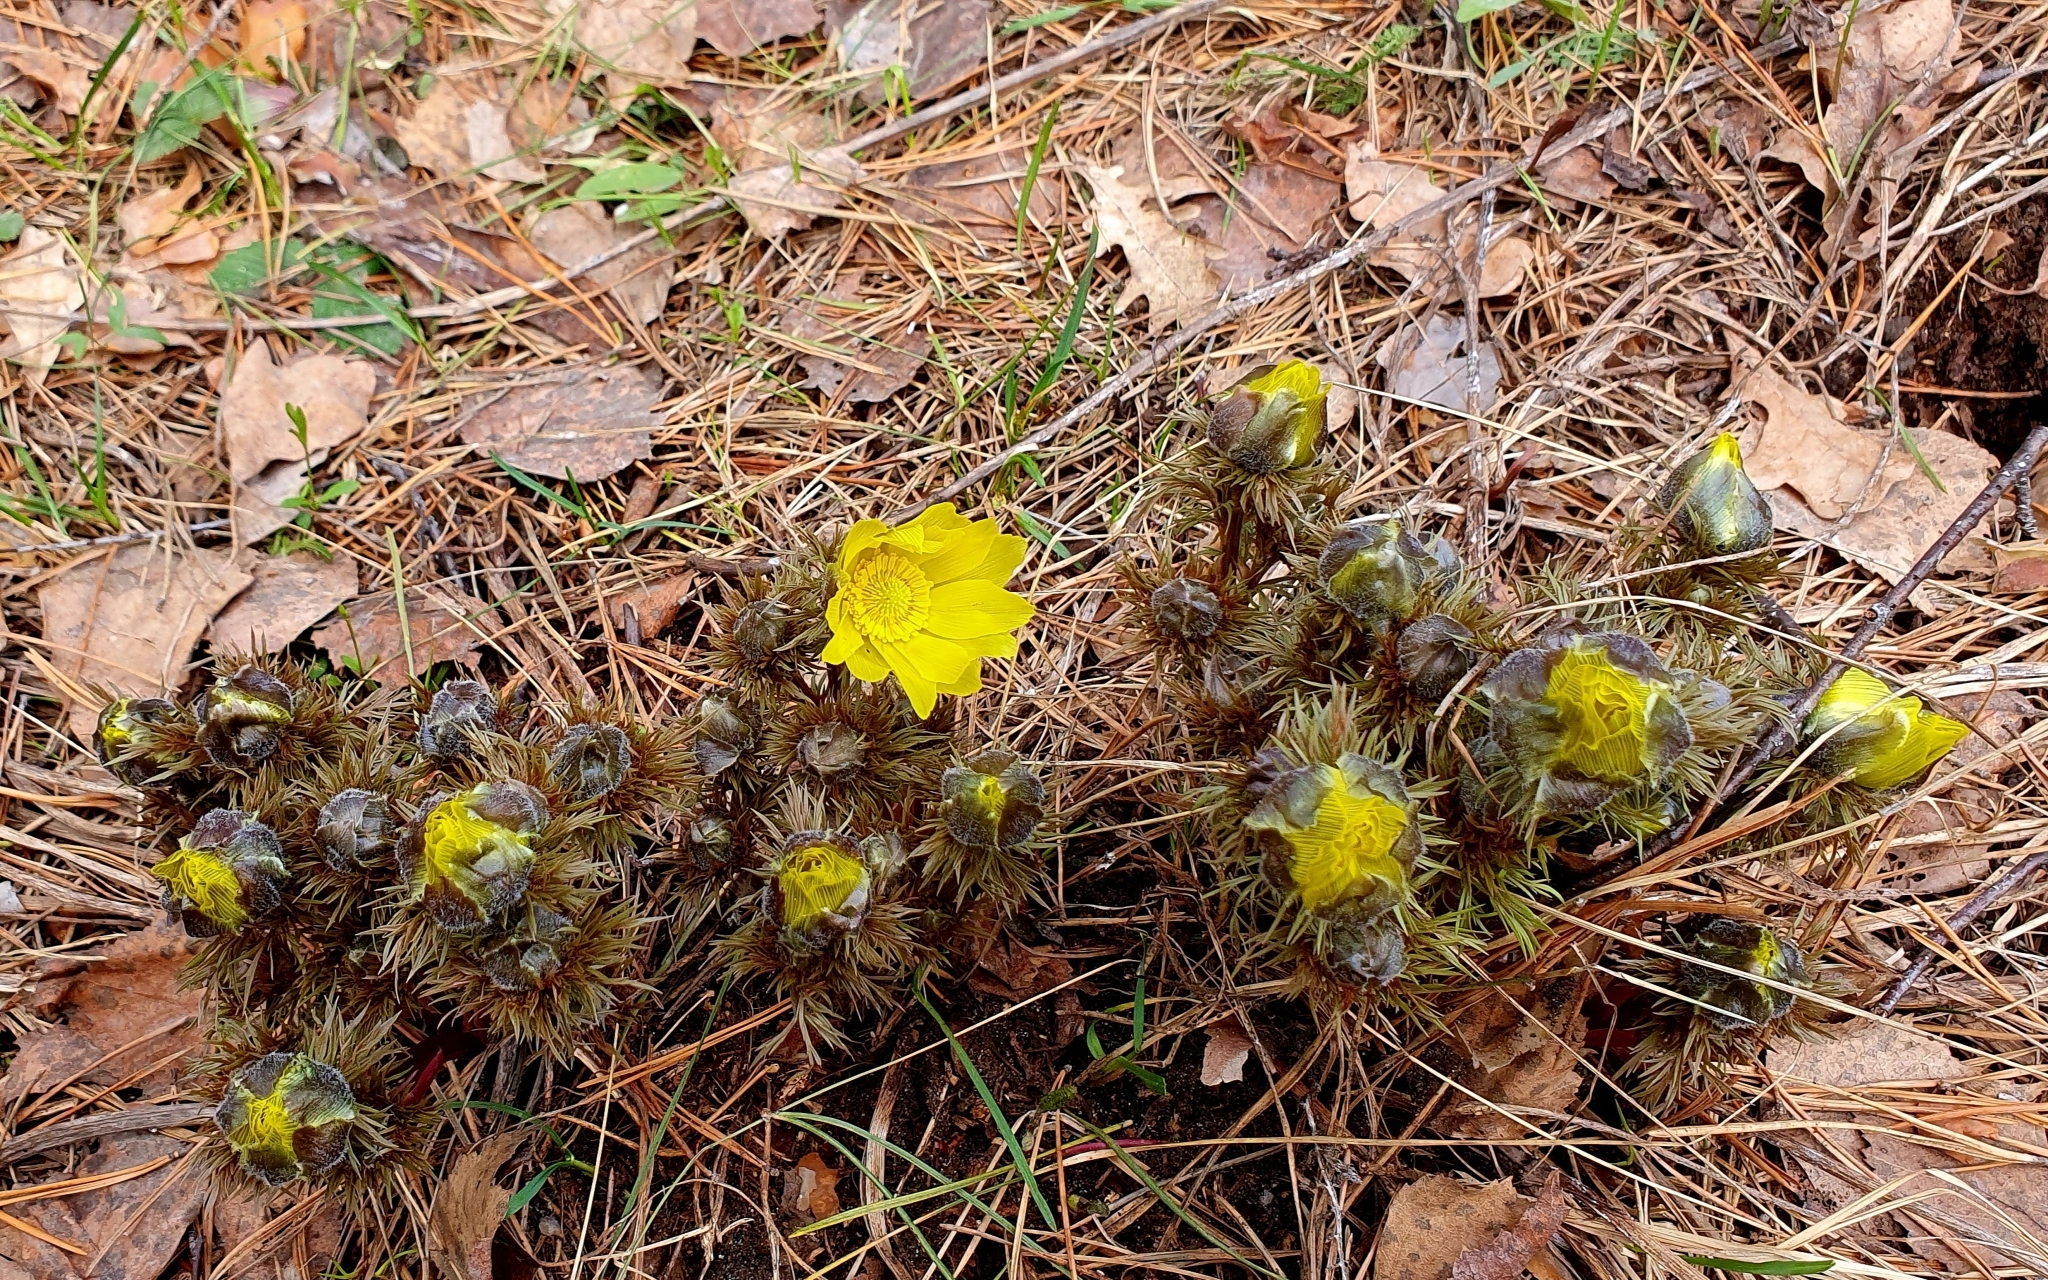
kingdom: Plantae
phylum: Tracheophyta
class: Magnoliopsida
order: Ranunculales
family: Ranunculaceae
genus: Adonis
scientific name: Adonis vernalis
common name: Yellow pheasants-eye
